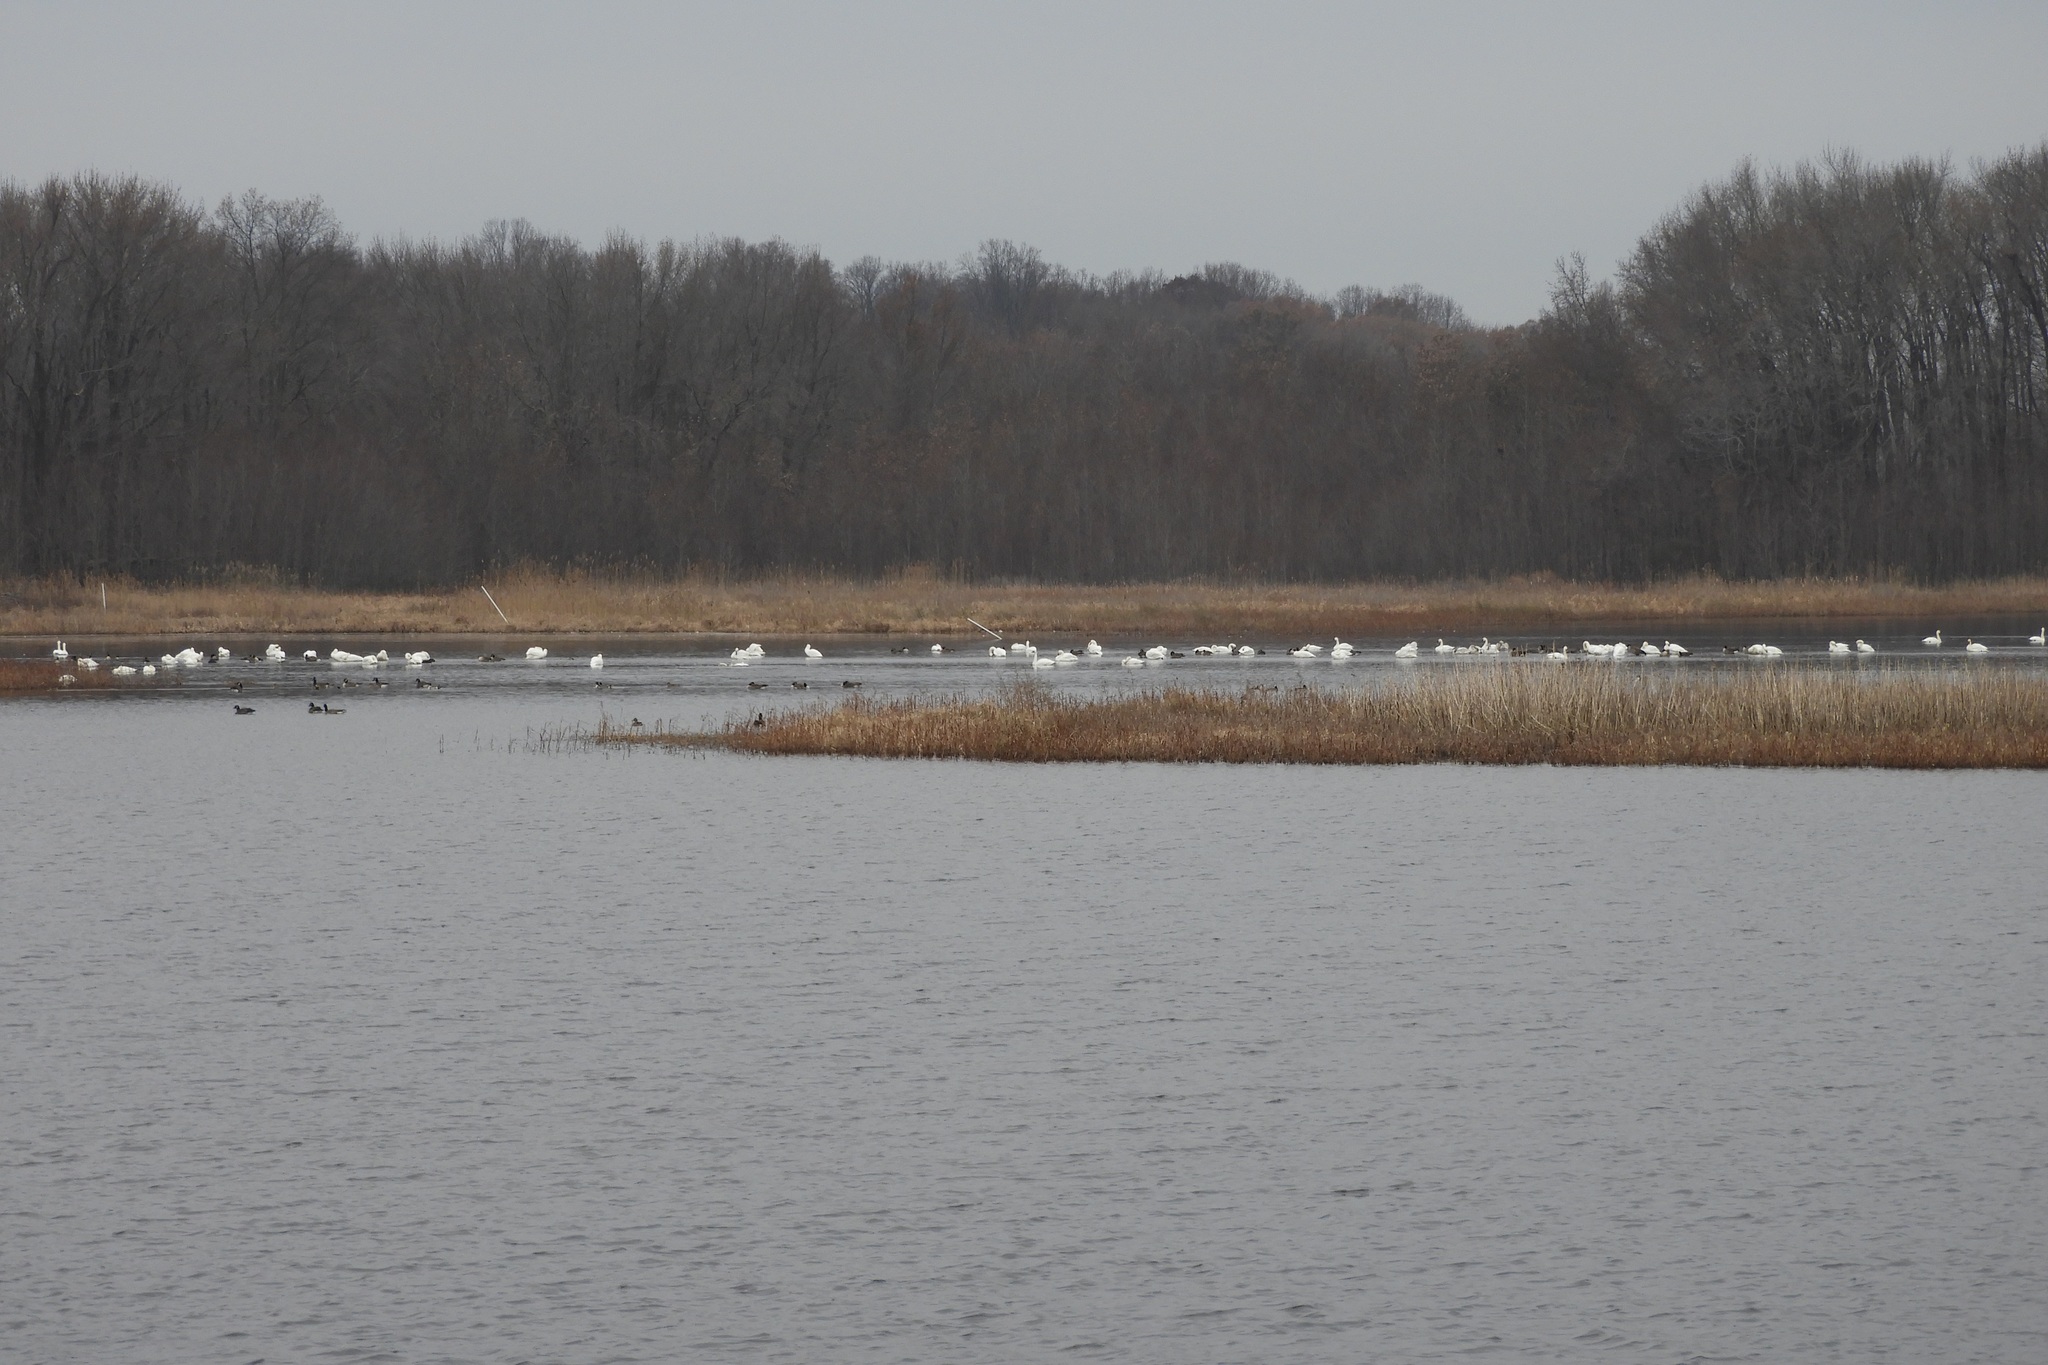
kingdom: Animalia
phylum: Chordata
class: Aves
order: Anseriformes
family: Anatidae
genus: Cygnus
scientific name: Cygnus columbianus
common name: Tundra swan
